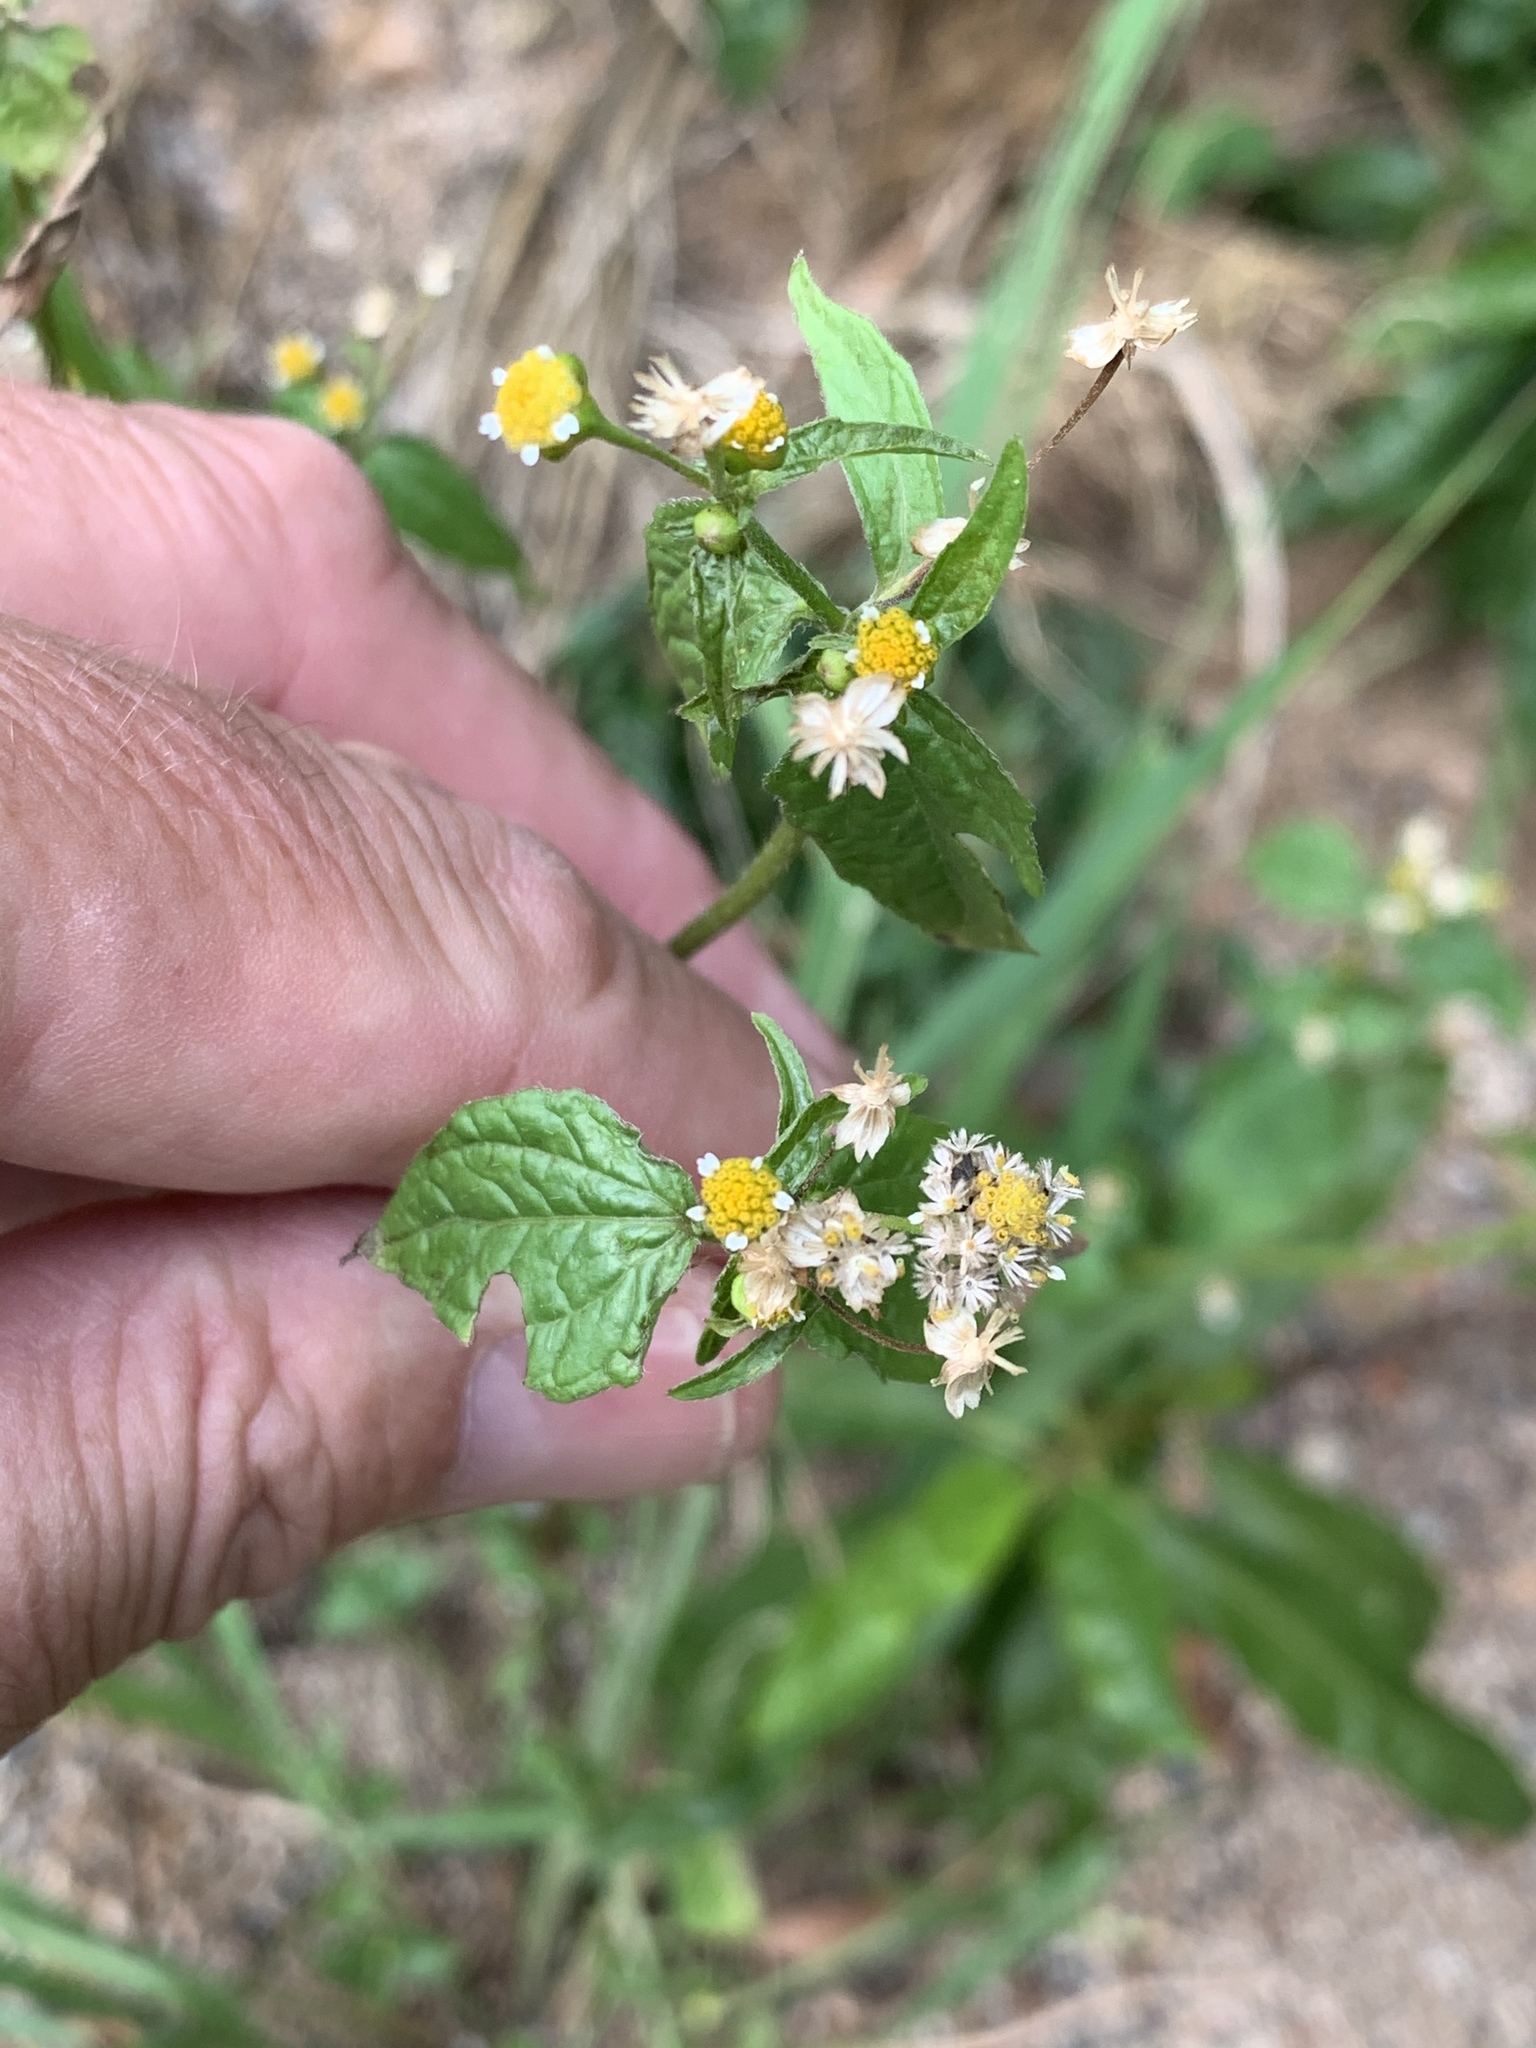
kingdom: Plantae
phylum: Tracheophyta
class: Magnoliopsida
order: Asterales
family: Asteraceae
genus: Galinsoga
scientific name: Galinsoga parviflora
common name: Gallant soldier
